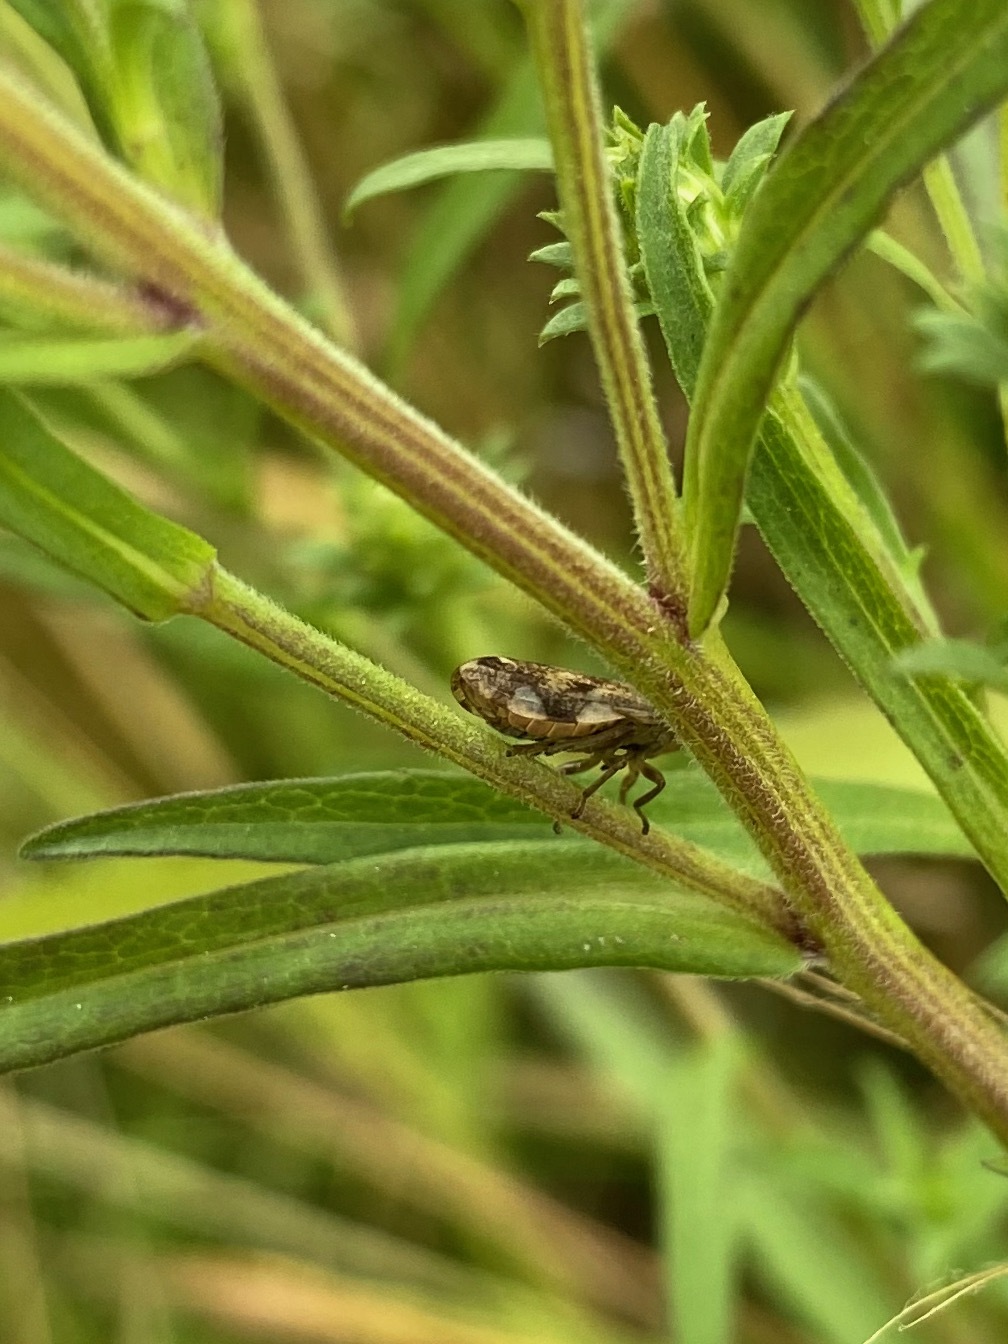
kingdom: Animalia
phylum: Arthropoda
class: Insecta
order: Hemiptera
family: Aphrophoridae
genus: Philaenus
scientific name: Philaenus spumarius
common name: Meadow spittlebug
